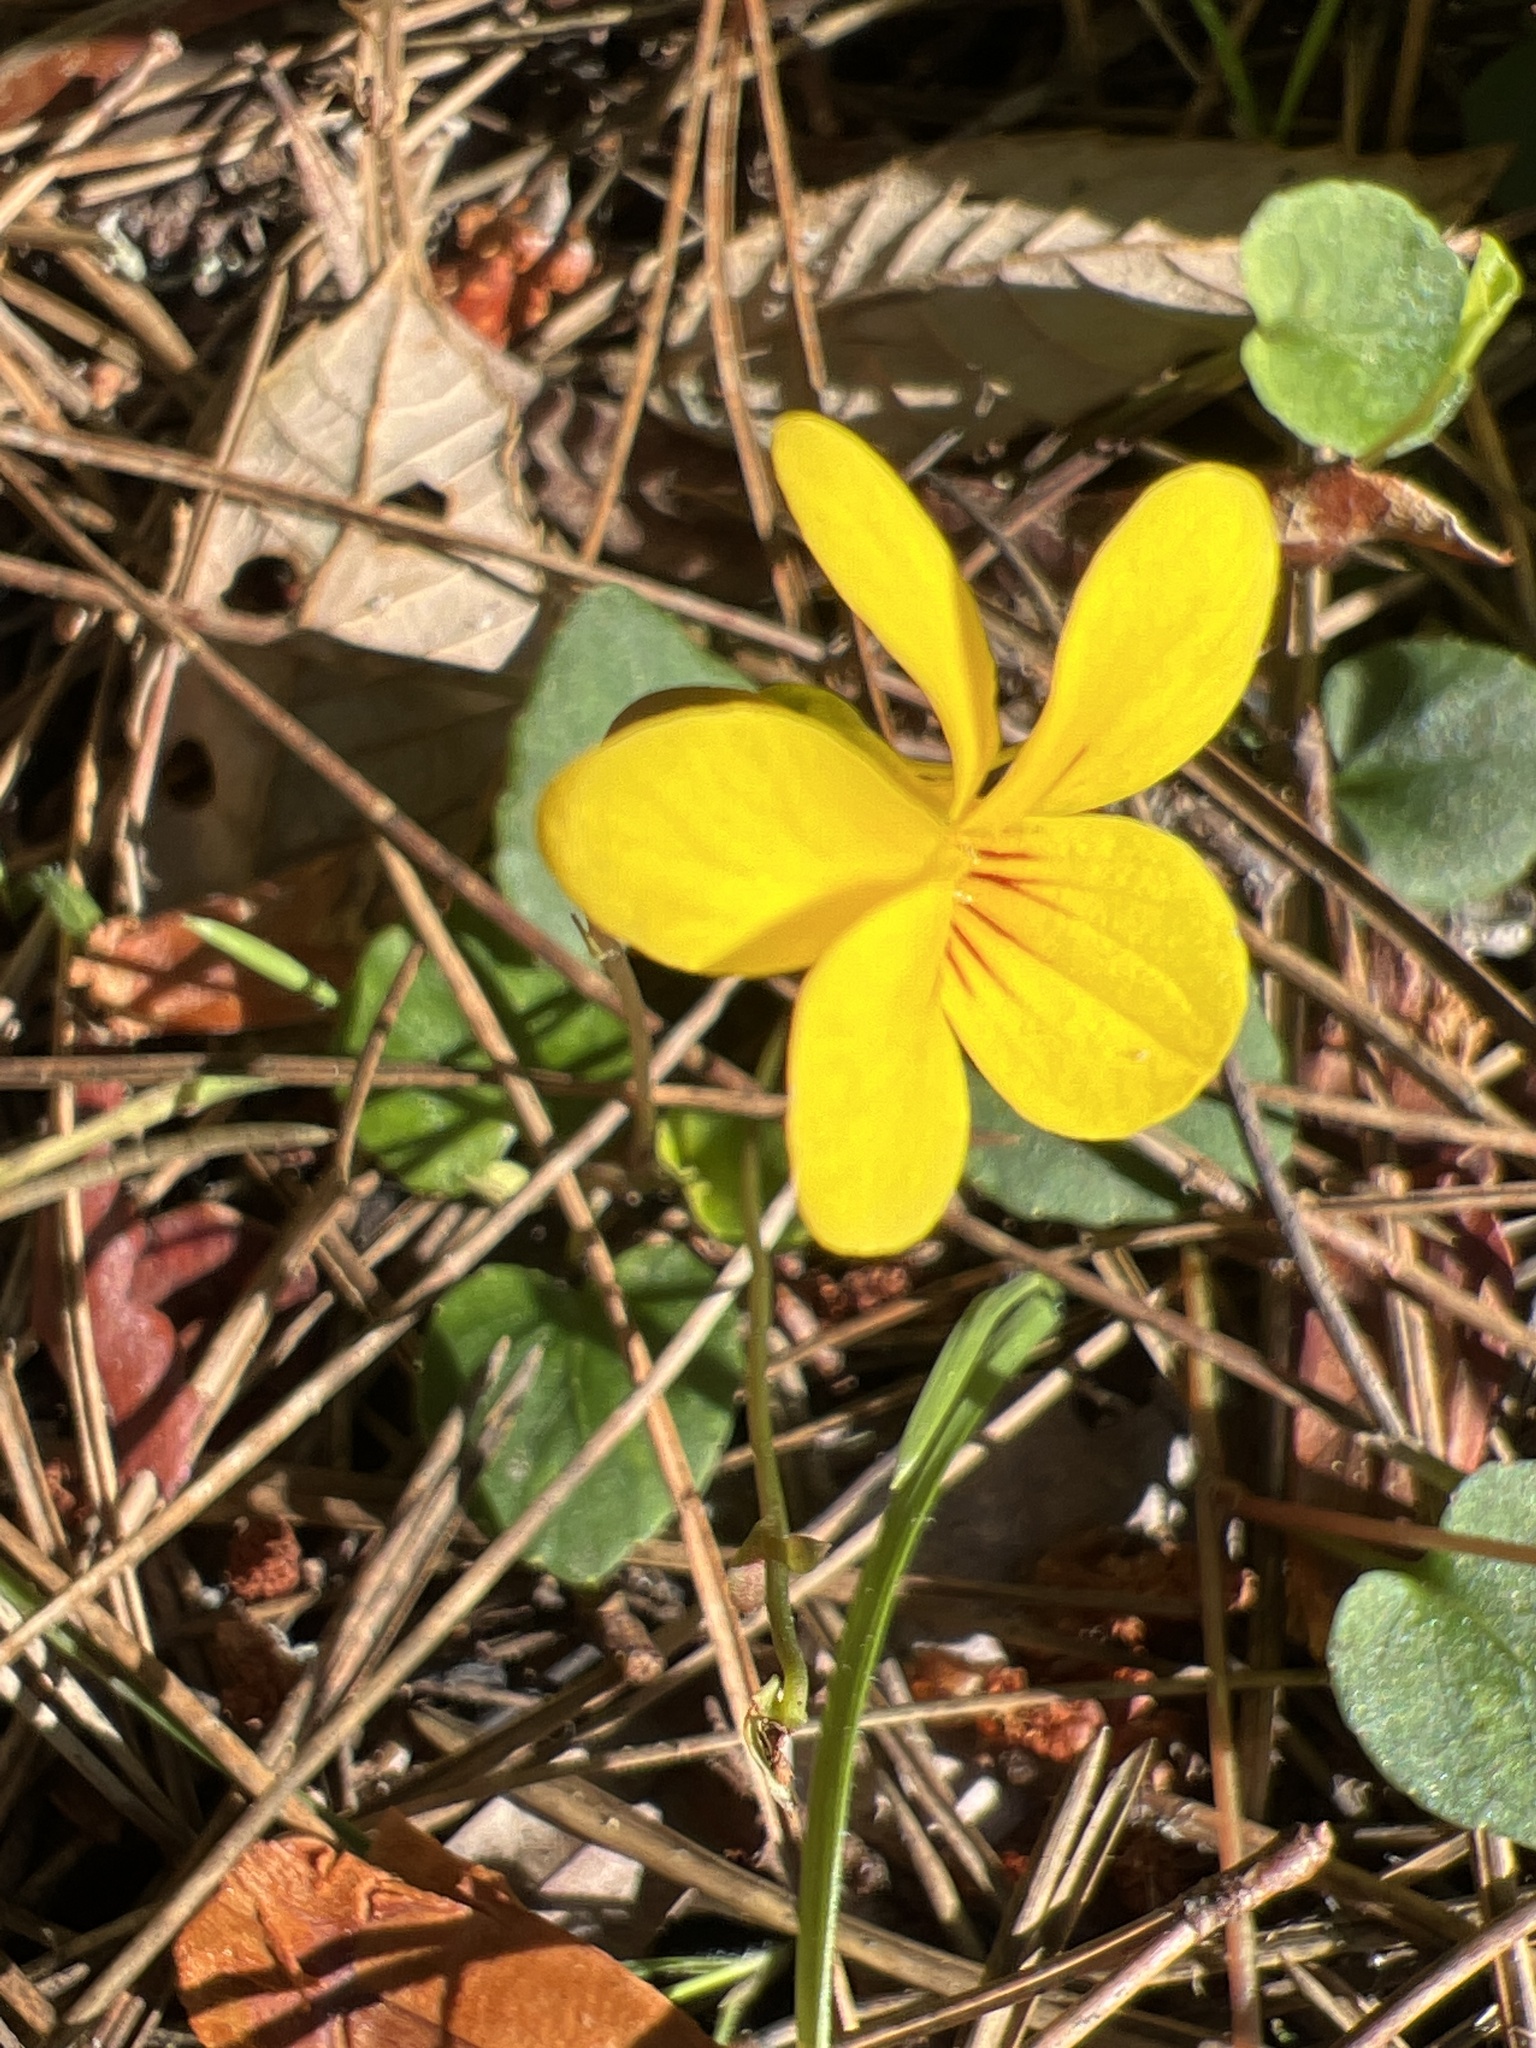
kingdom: Plantae
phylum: Tracheophyta
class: Magnoliopsida
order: Malpighiales
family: Violaceae
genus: Viola
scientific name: Viola sempervirens
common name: Evergreen violet
